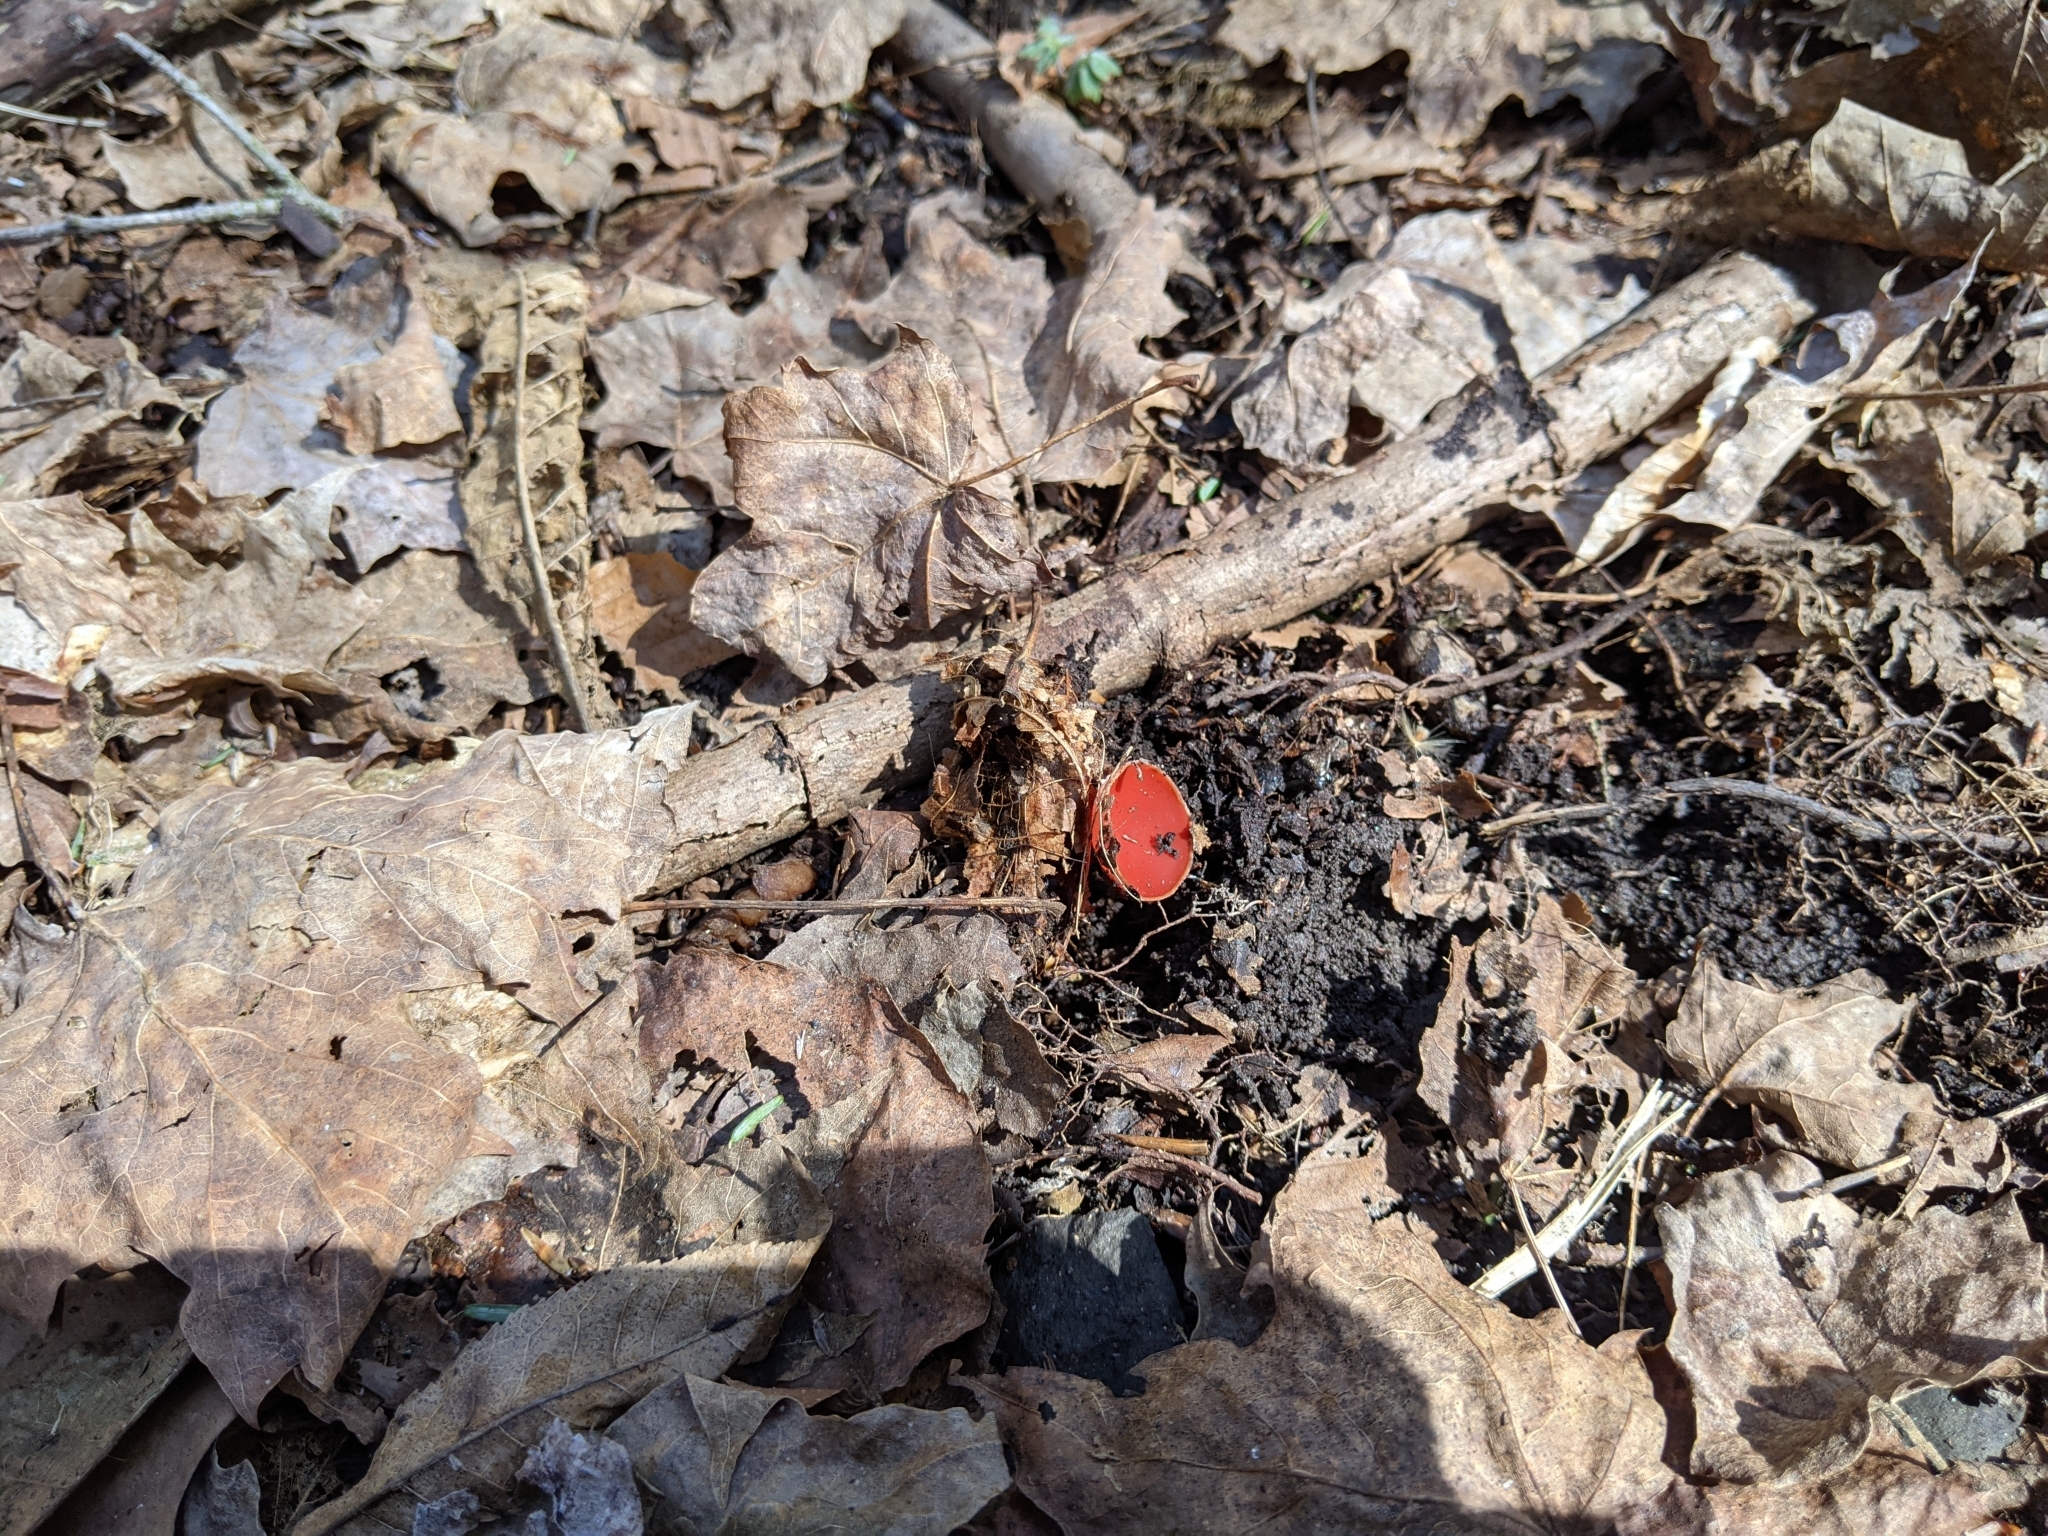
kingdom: Fungi
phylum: Ascomycota
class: Pezizomycetes
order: Pezizales
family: Sarcoscyphaceae
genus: Sarcoscypha
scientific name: Sarcoscypha austriaca
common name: Scarlet elfcup
